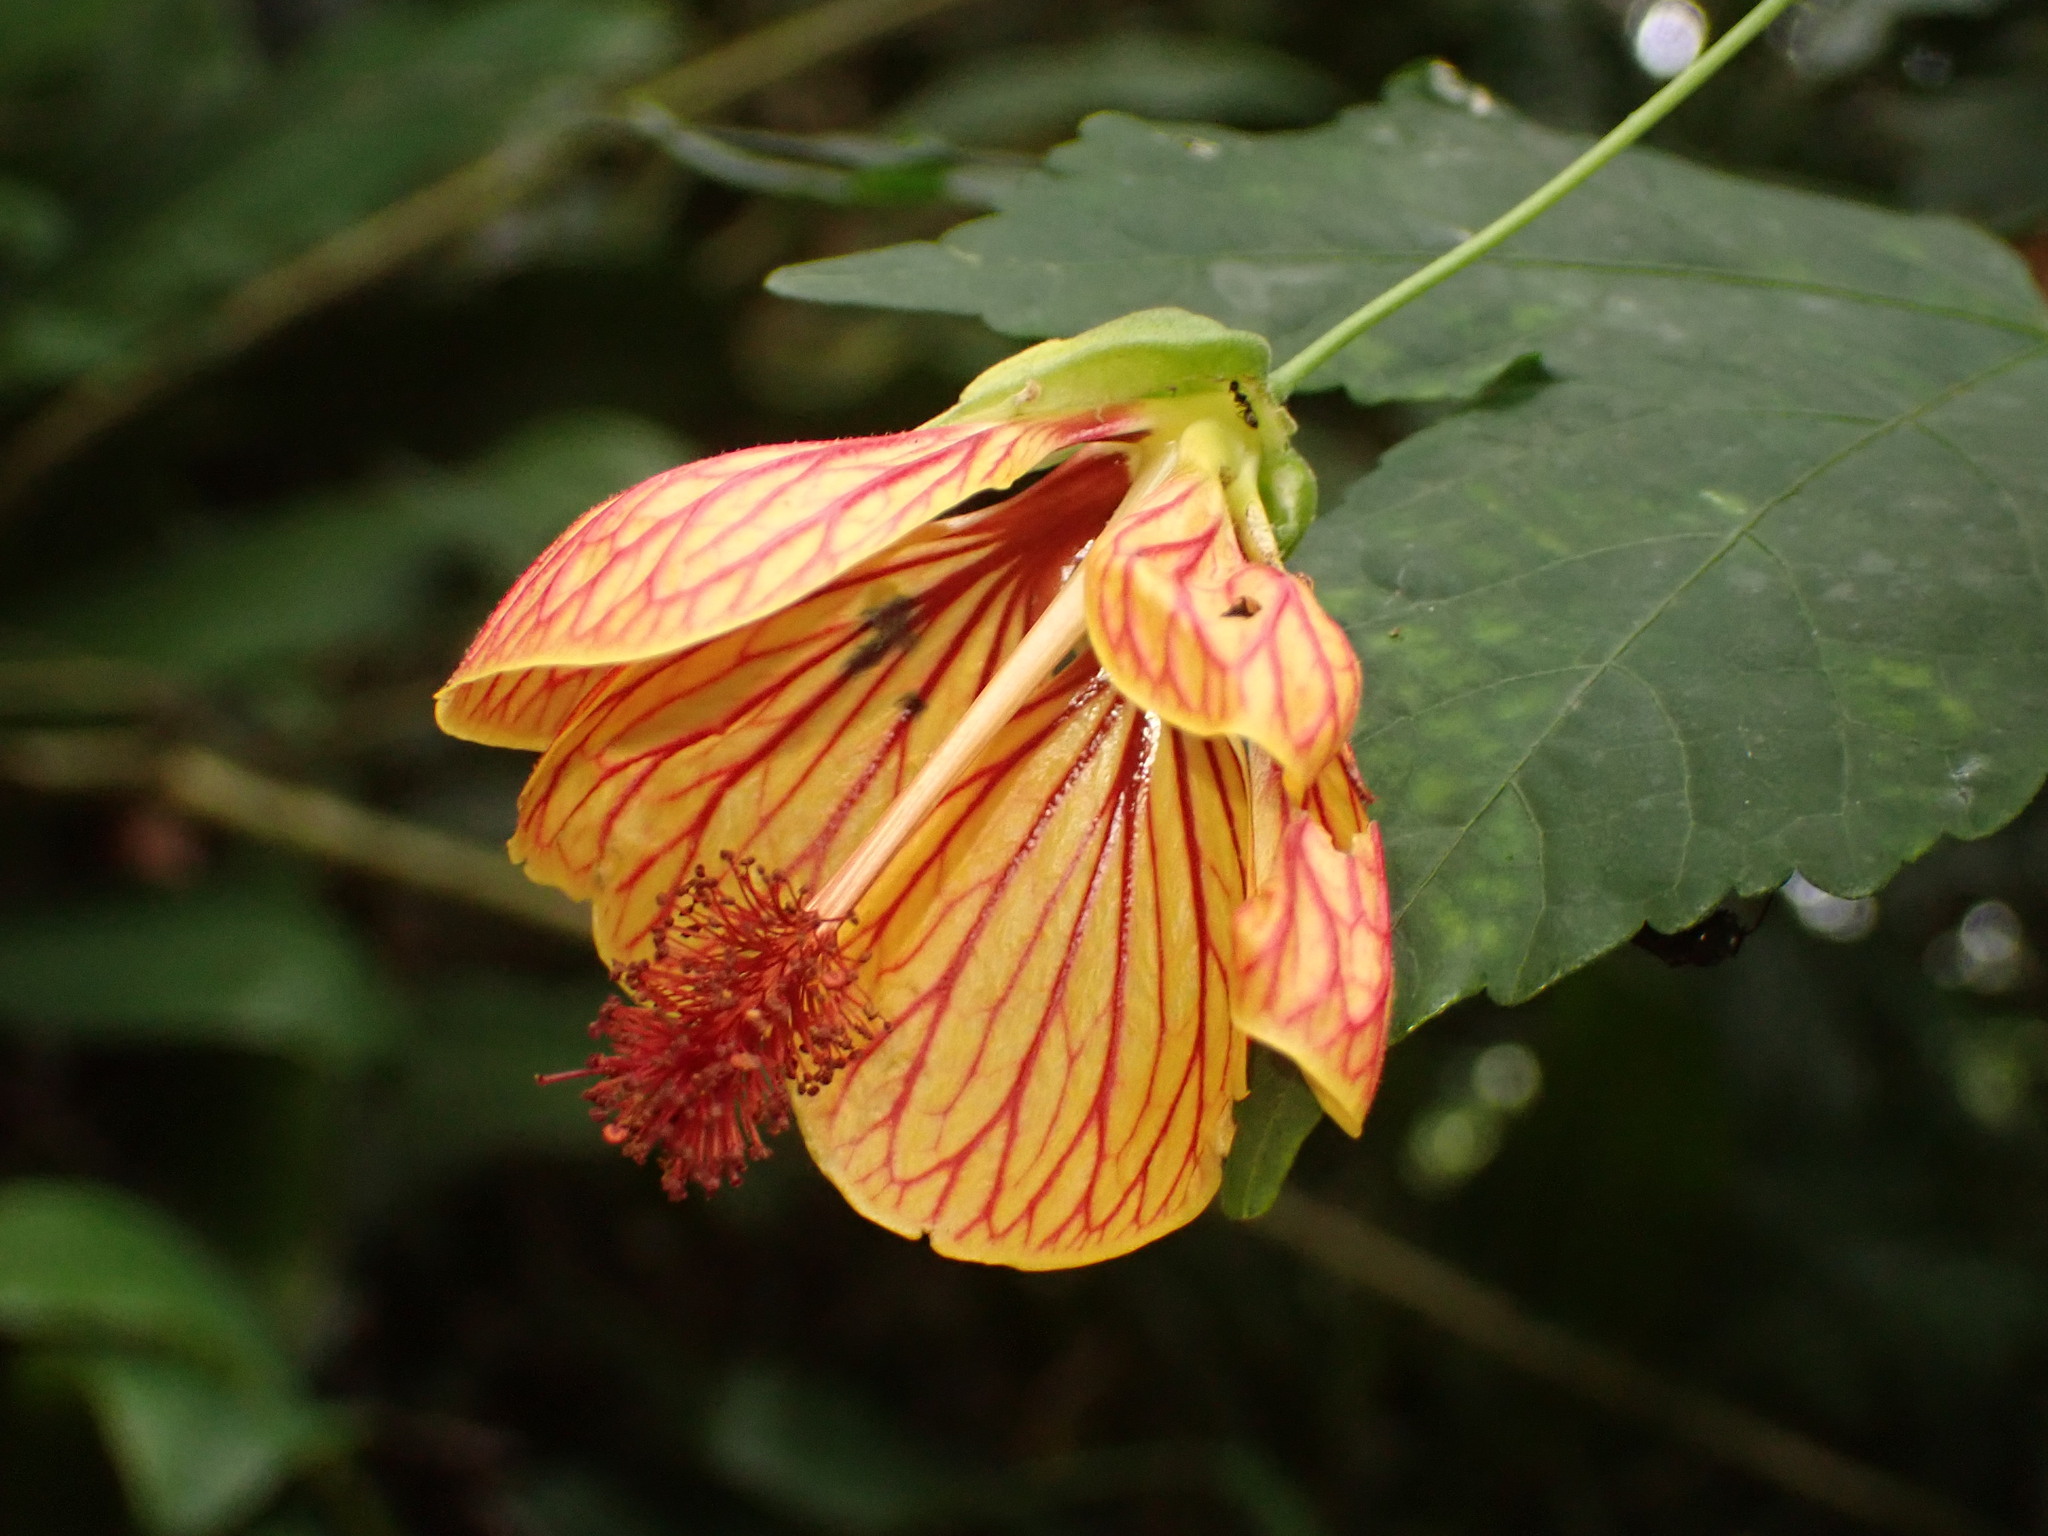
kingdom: Plantae
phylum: Tracheophyta
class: Magnoliopsida
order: Malvales
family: Malvaceae
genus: Callianthe
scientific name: Callianthe picta
